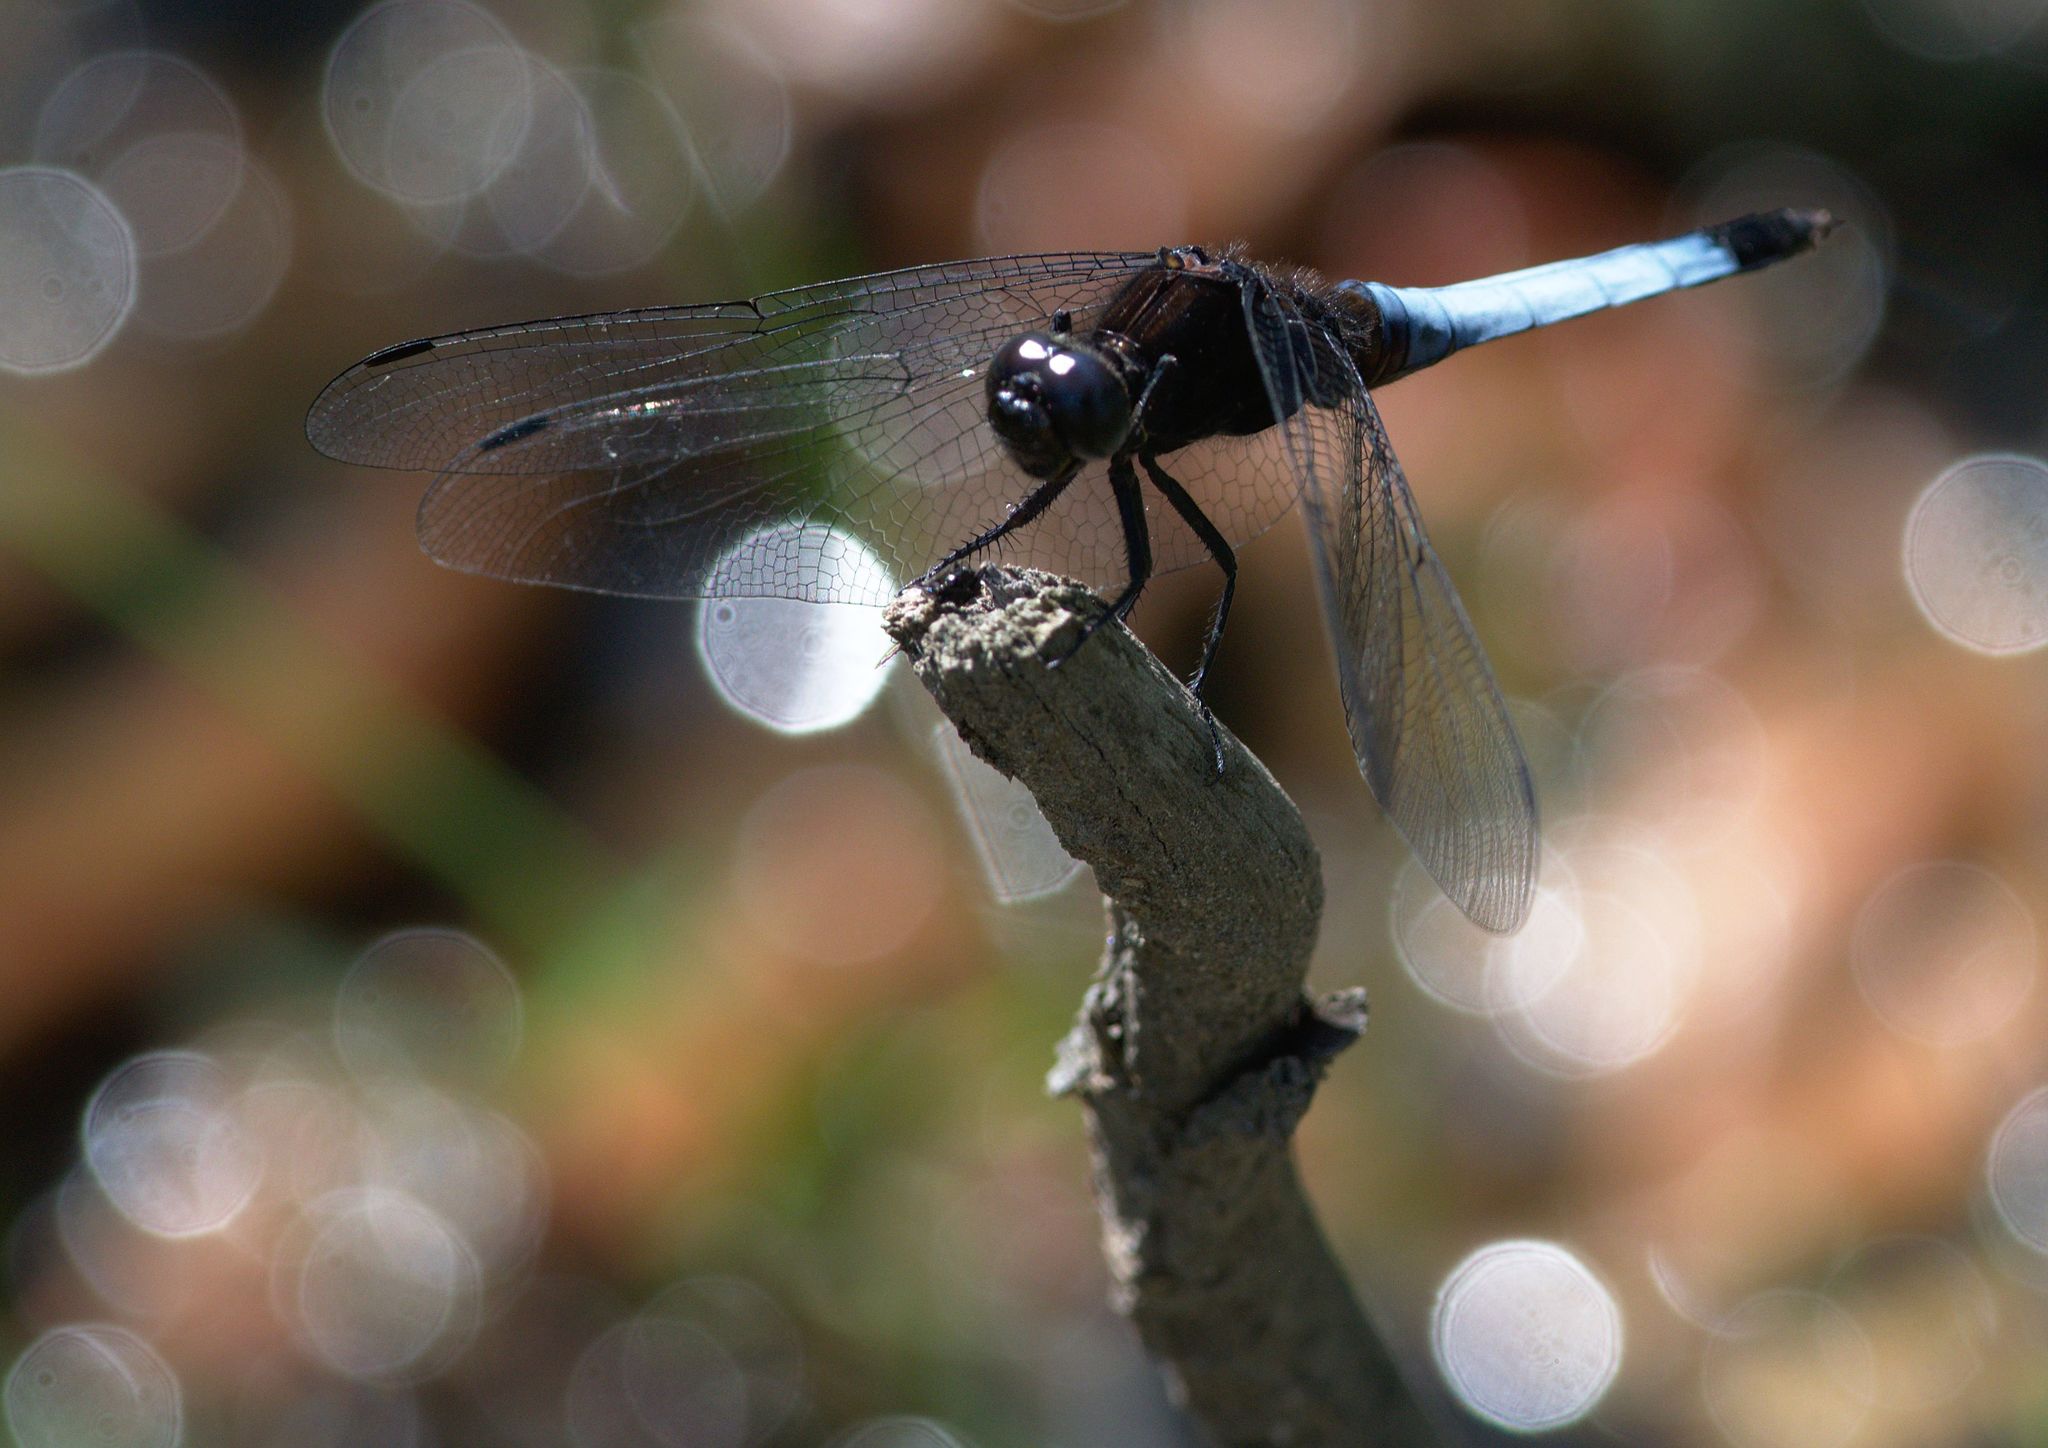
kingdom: Animalia
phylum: Arthropoda
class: Insecta
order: Odonata
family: Libellulidae
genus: Orthetrum
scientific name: Orthetrum triangulare
